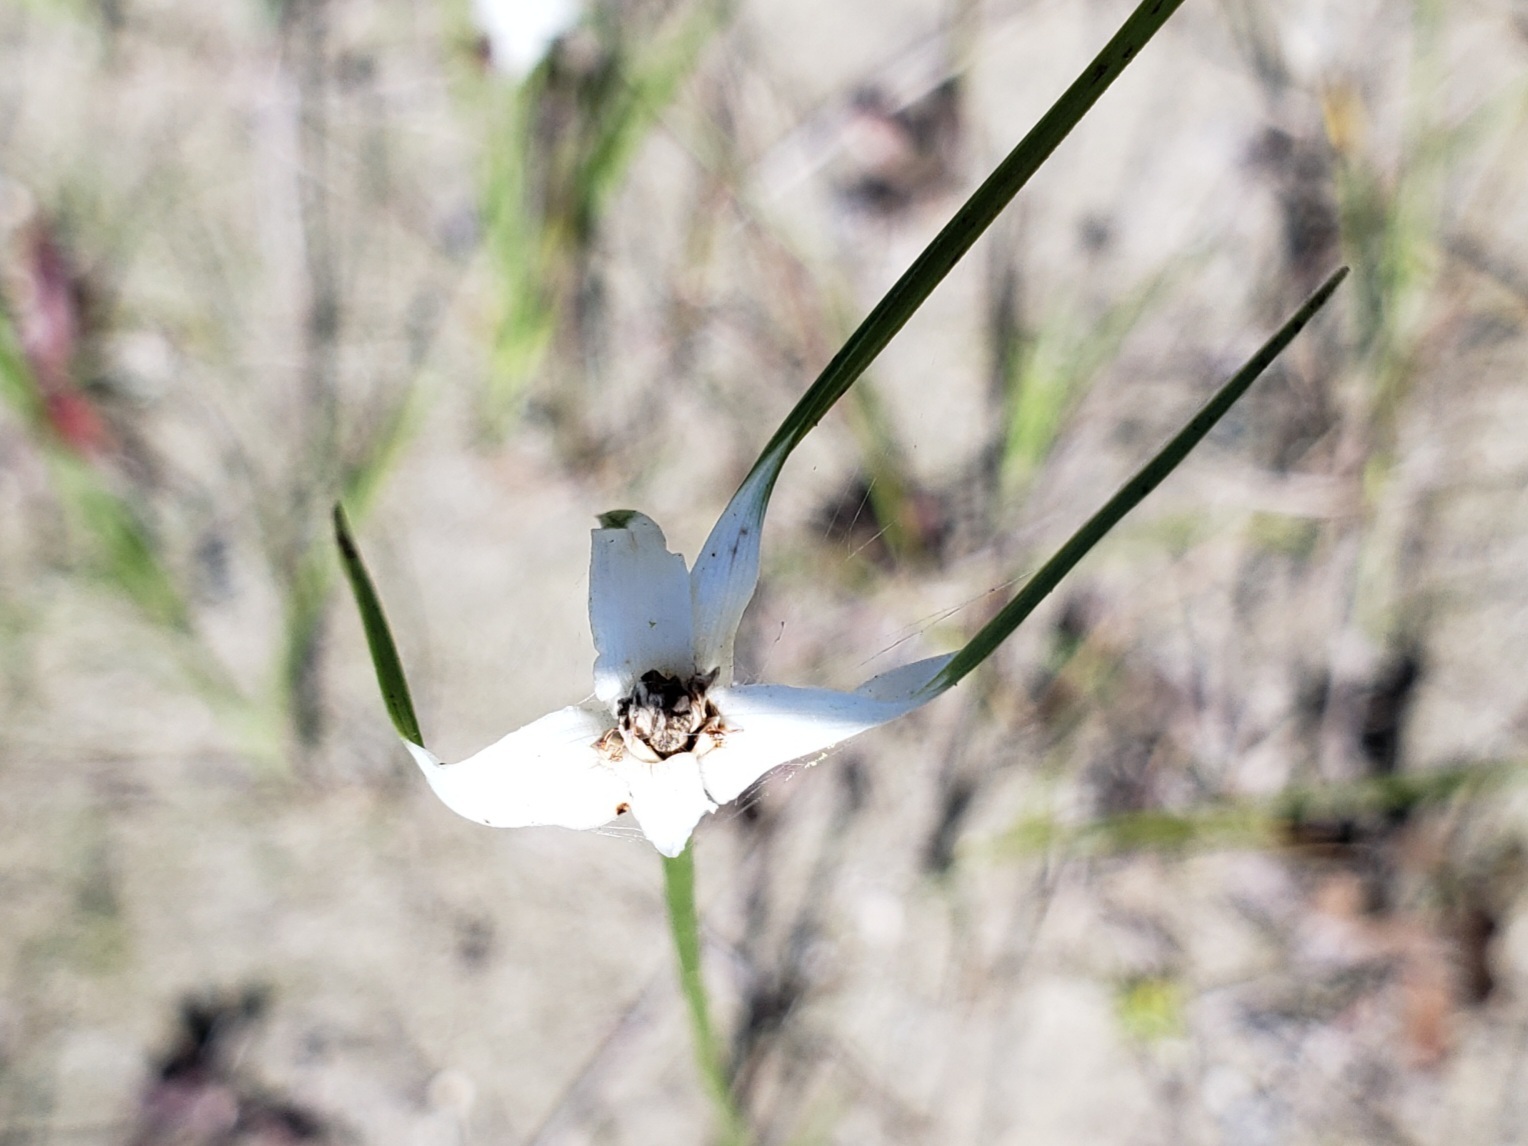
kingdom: Plantae
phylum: Tracheophyta
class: Liliopsida
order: Poales
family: Cyperaceae
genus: Rhynchospora
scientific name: Rhynchospora colorata
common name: Star sedge
